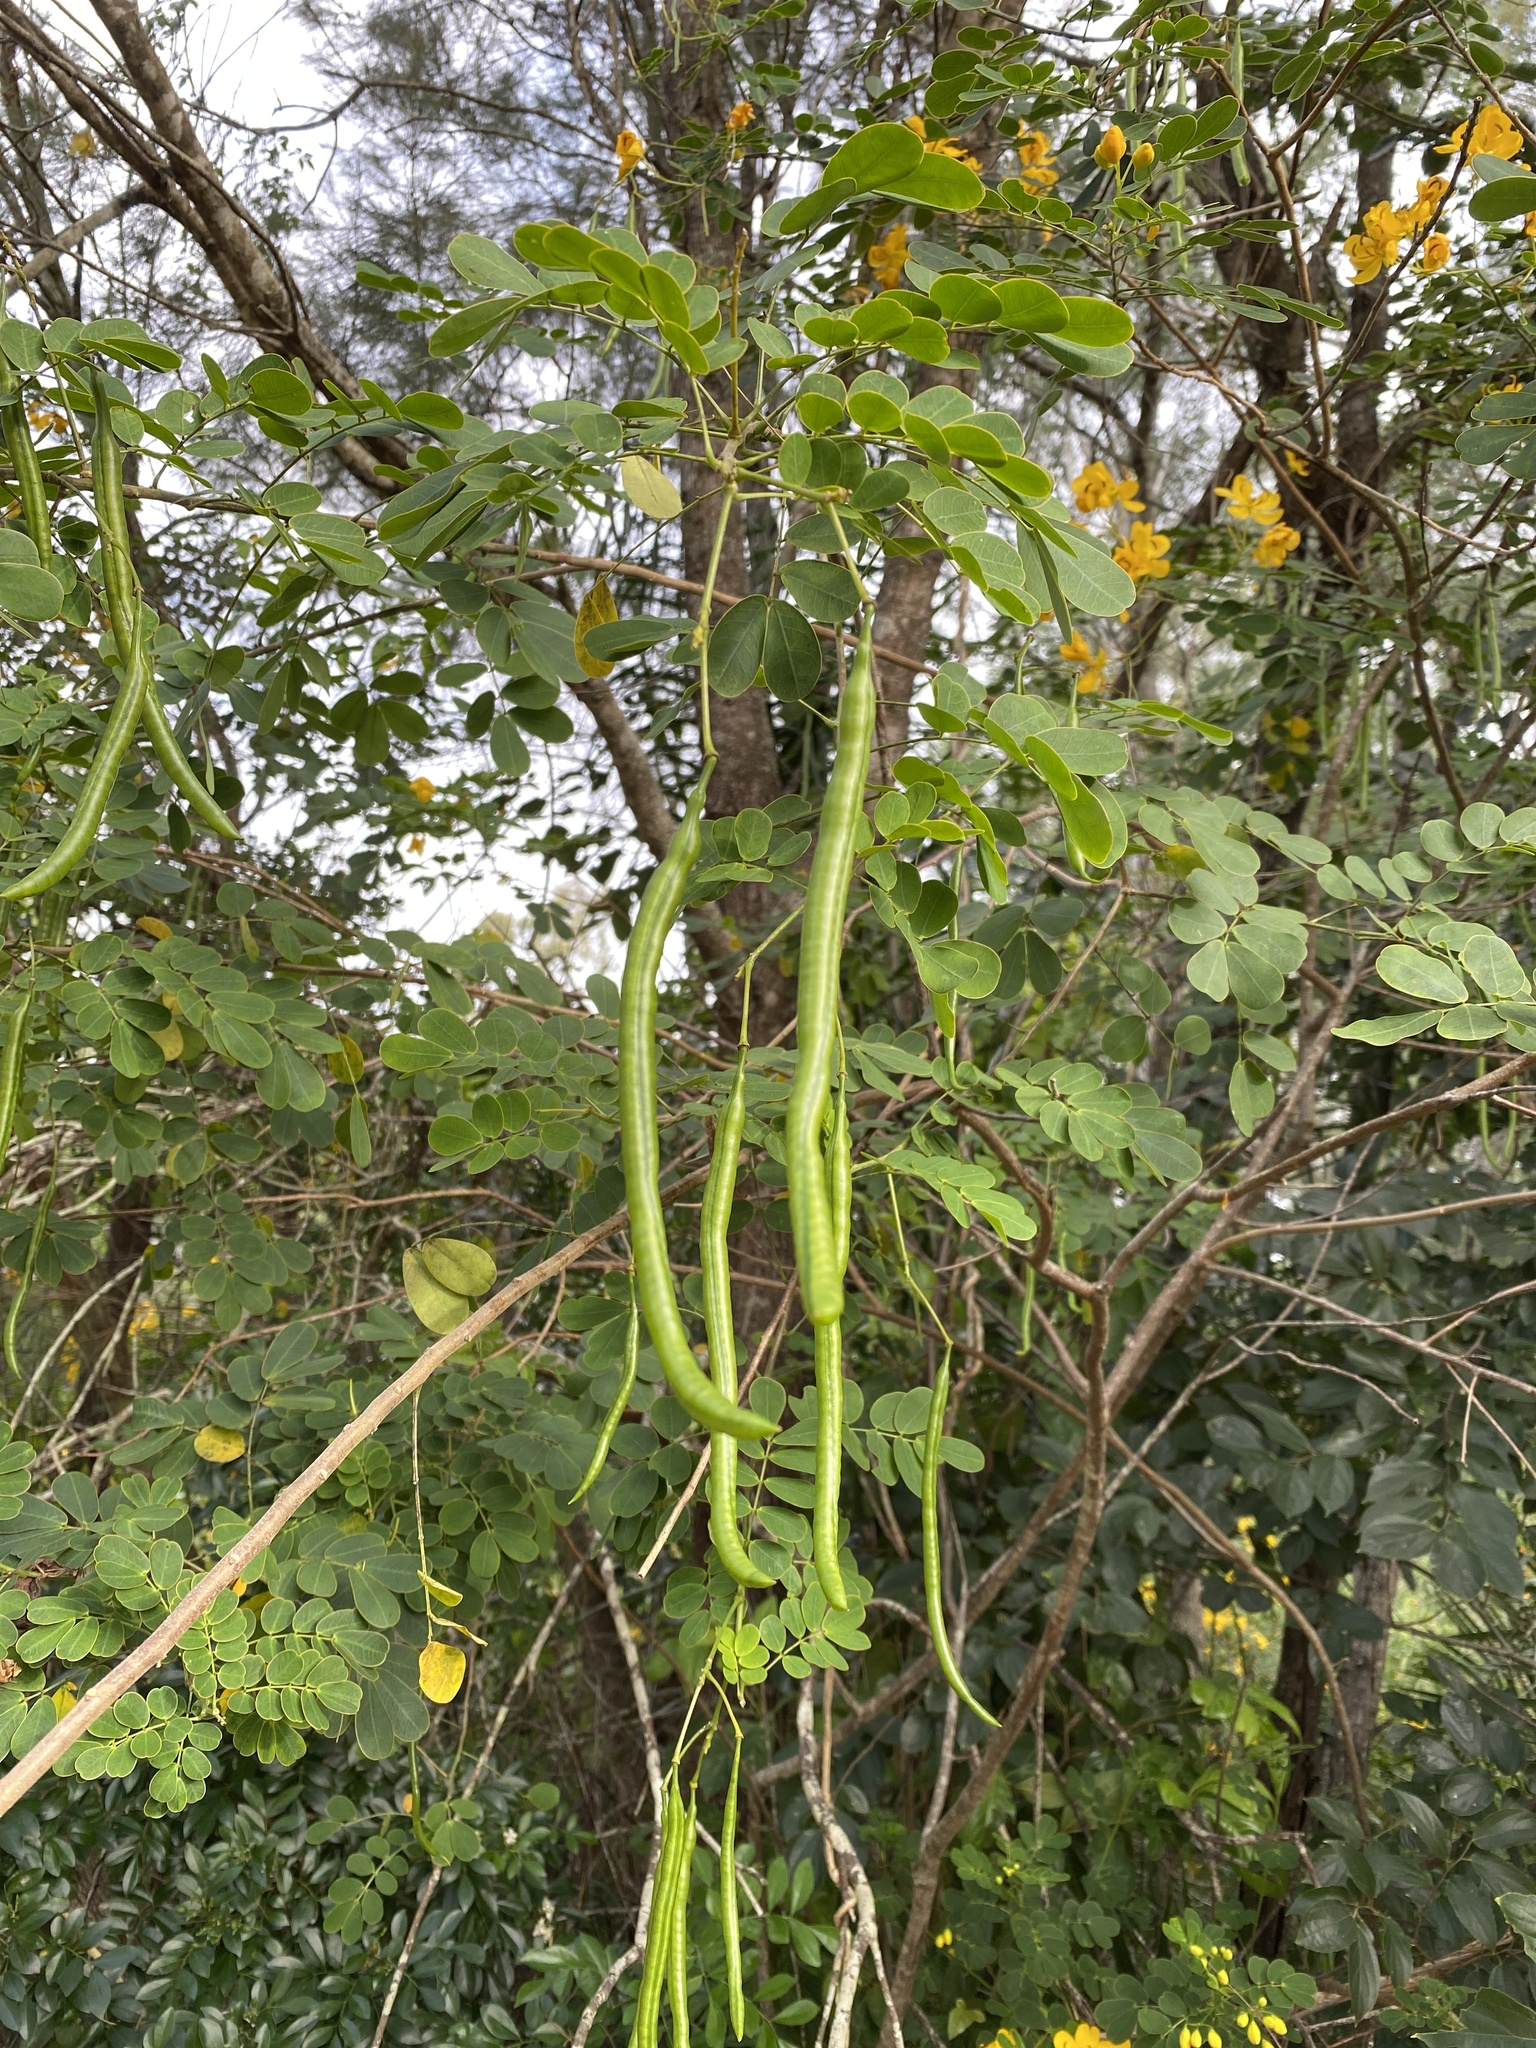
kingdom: Plantae
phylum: Tracheophyta
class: Magnoliopsida
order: Fabales
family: Fabaceae
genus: Senna
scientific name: Senna pendula
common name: Easter cassia
